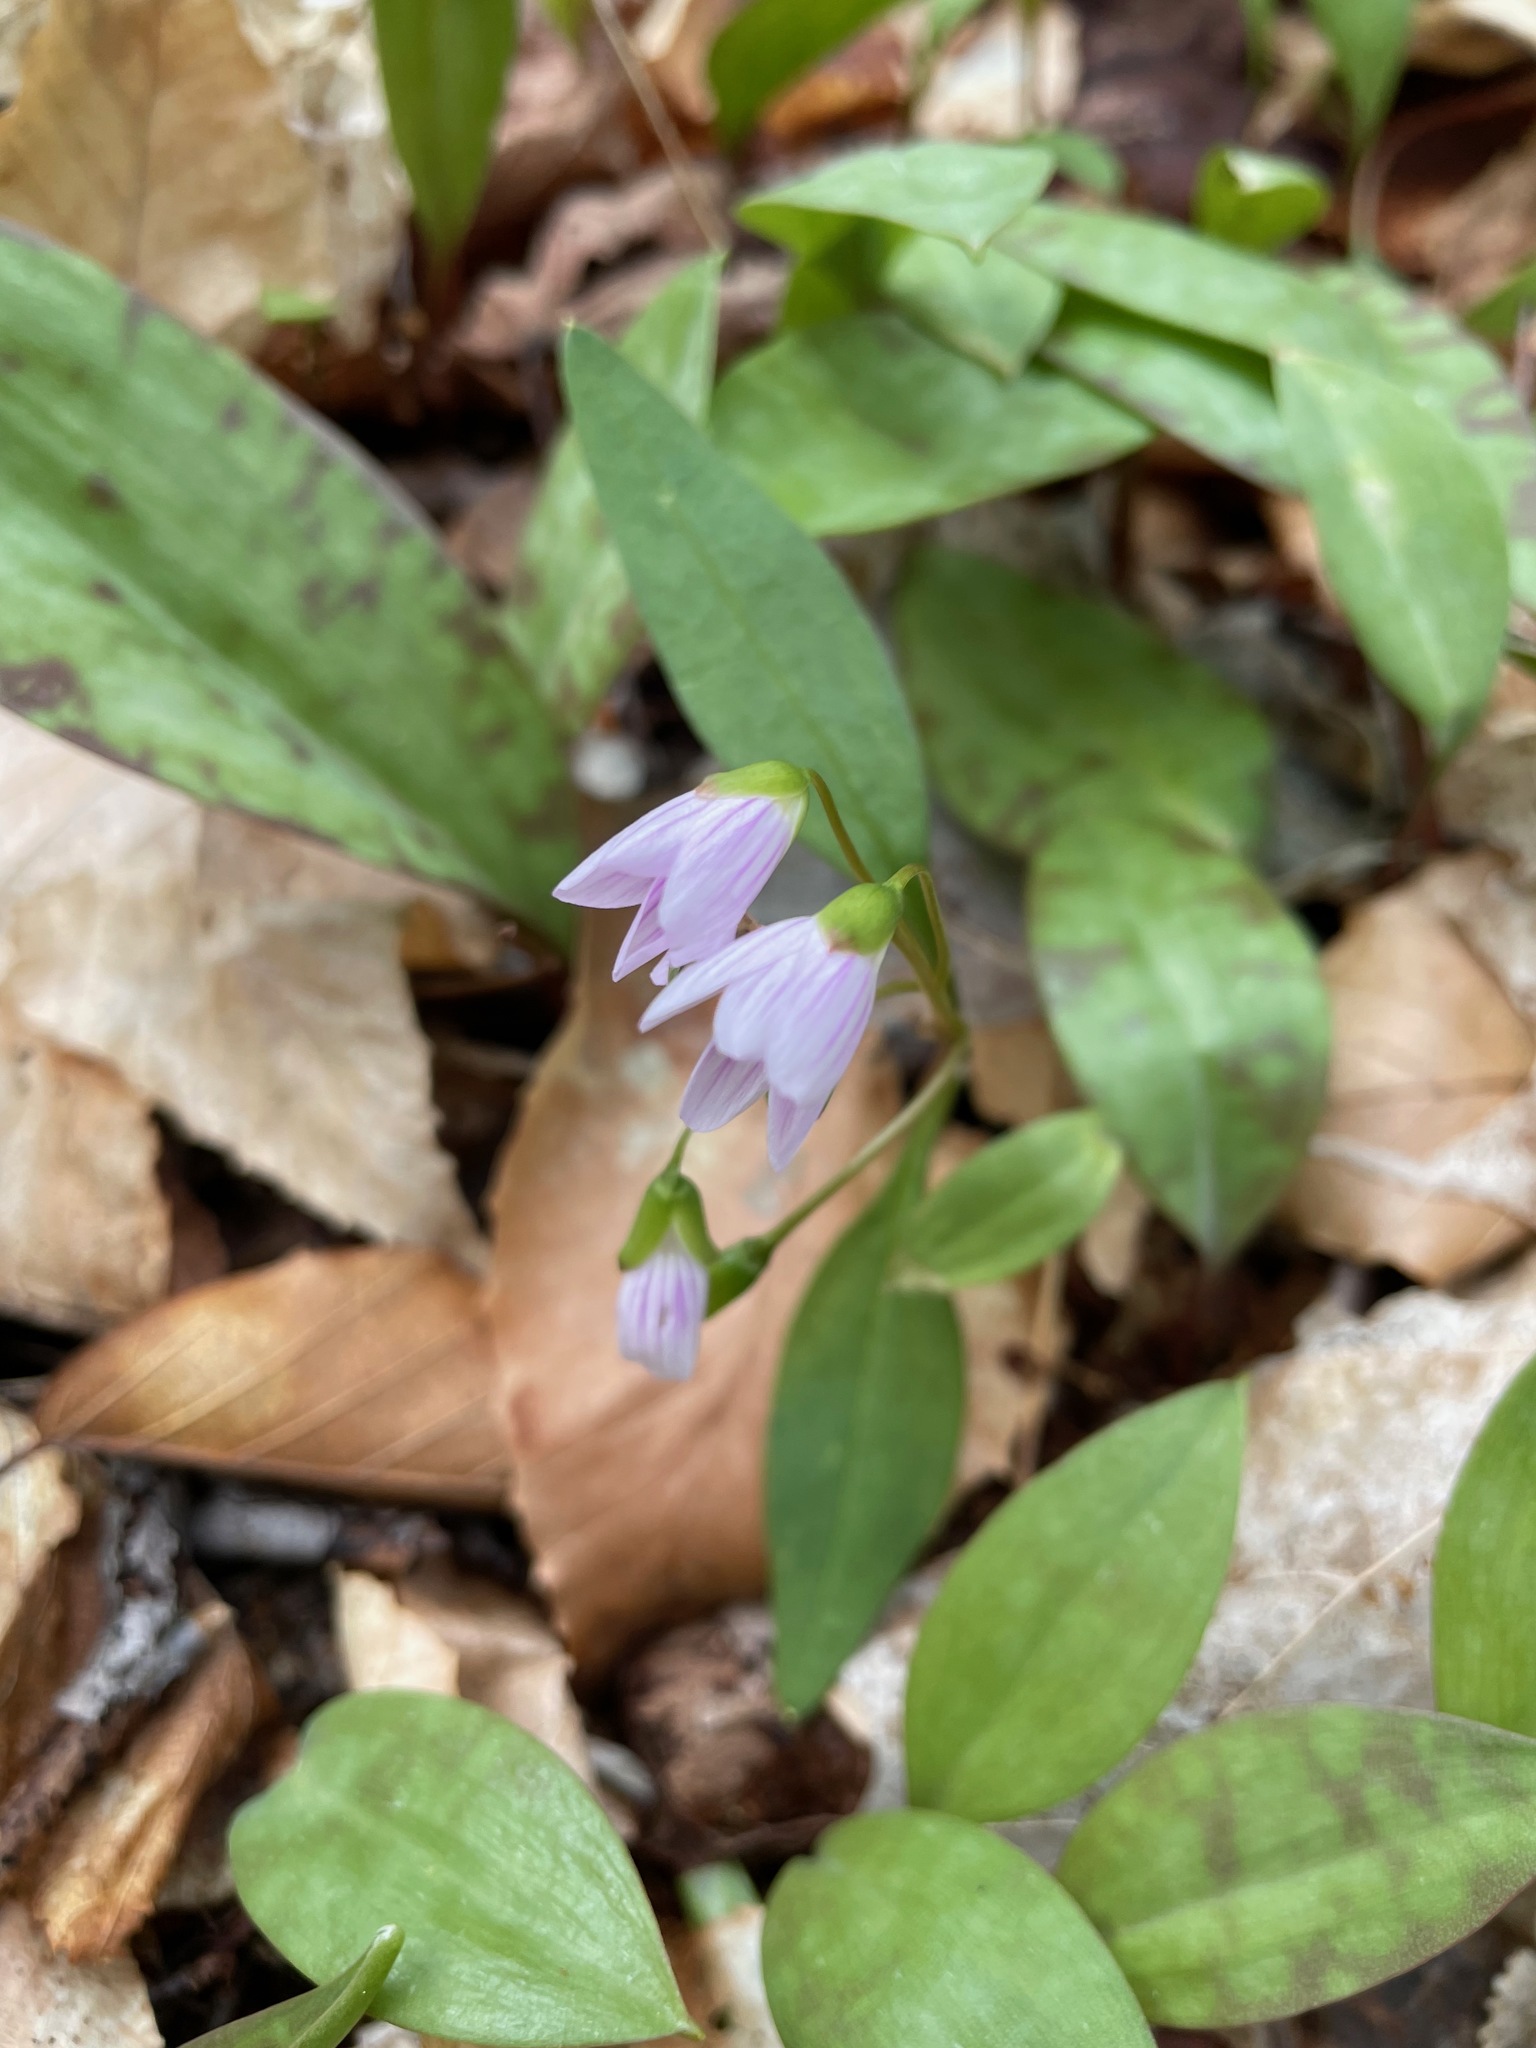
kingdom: Plantae
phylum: Tracheophyta
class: Magnoliopsida
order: Caryophyllales
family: Montiaceae
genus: Claytonia
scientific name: Claytonia caroliniana
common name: Carolina spring beauty
